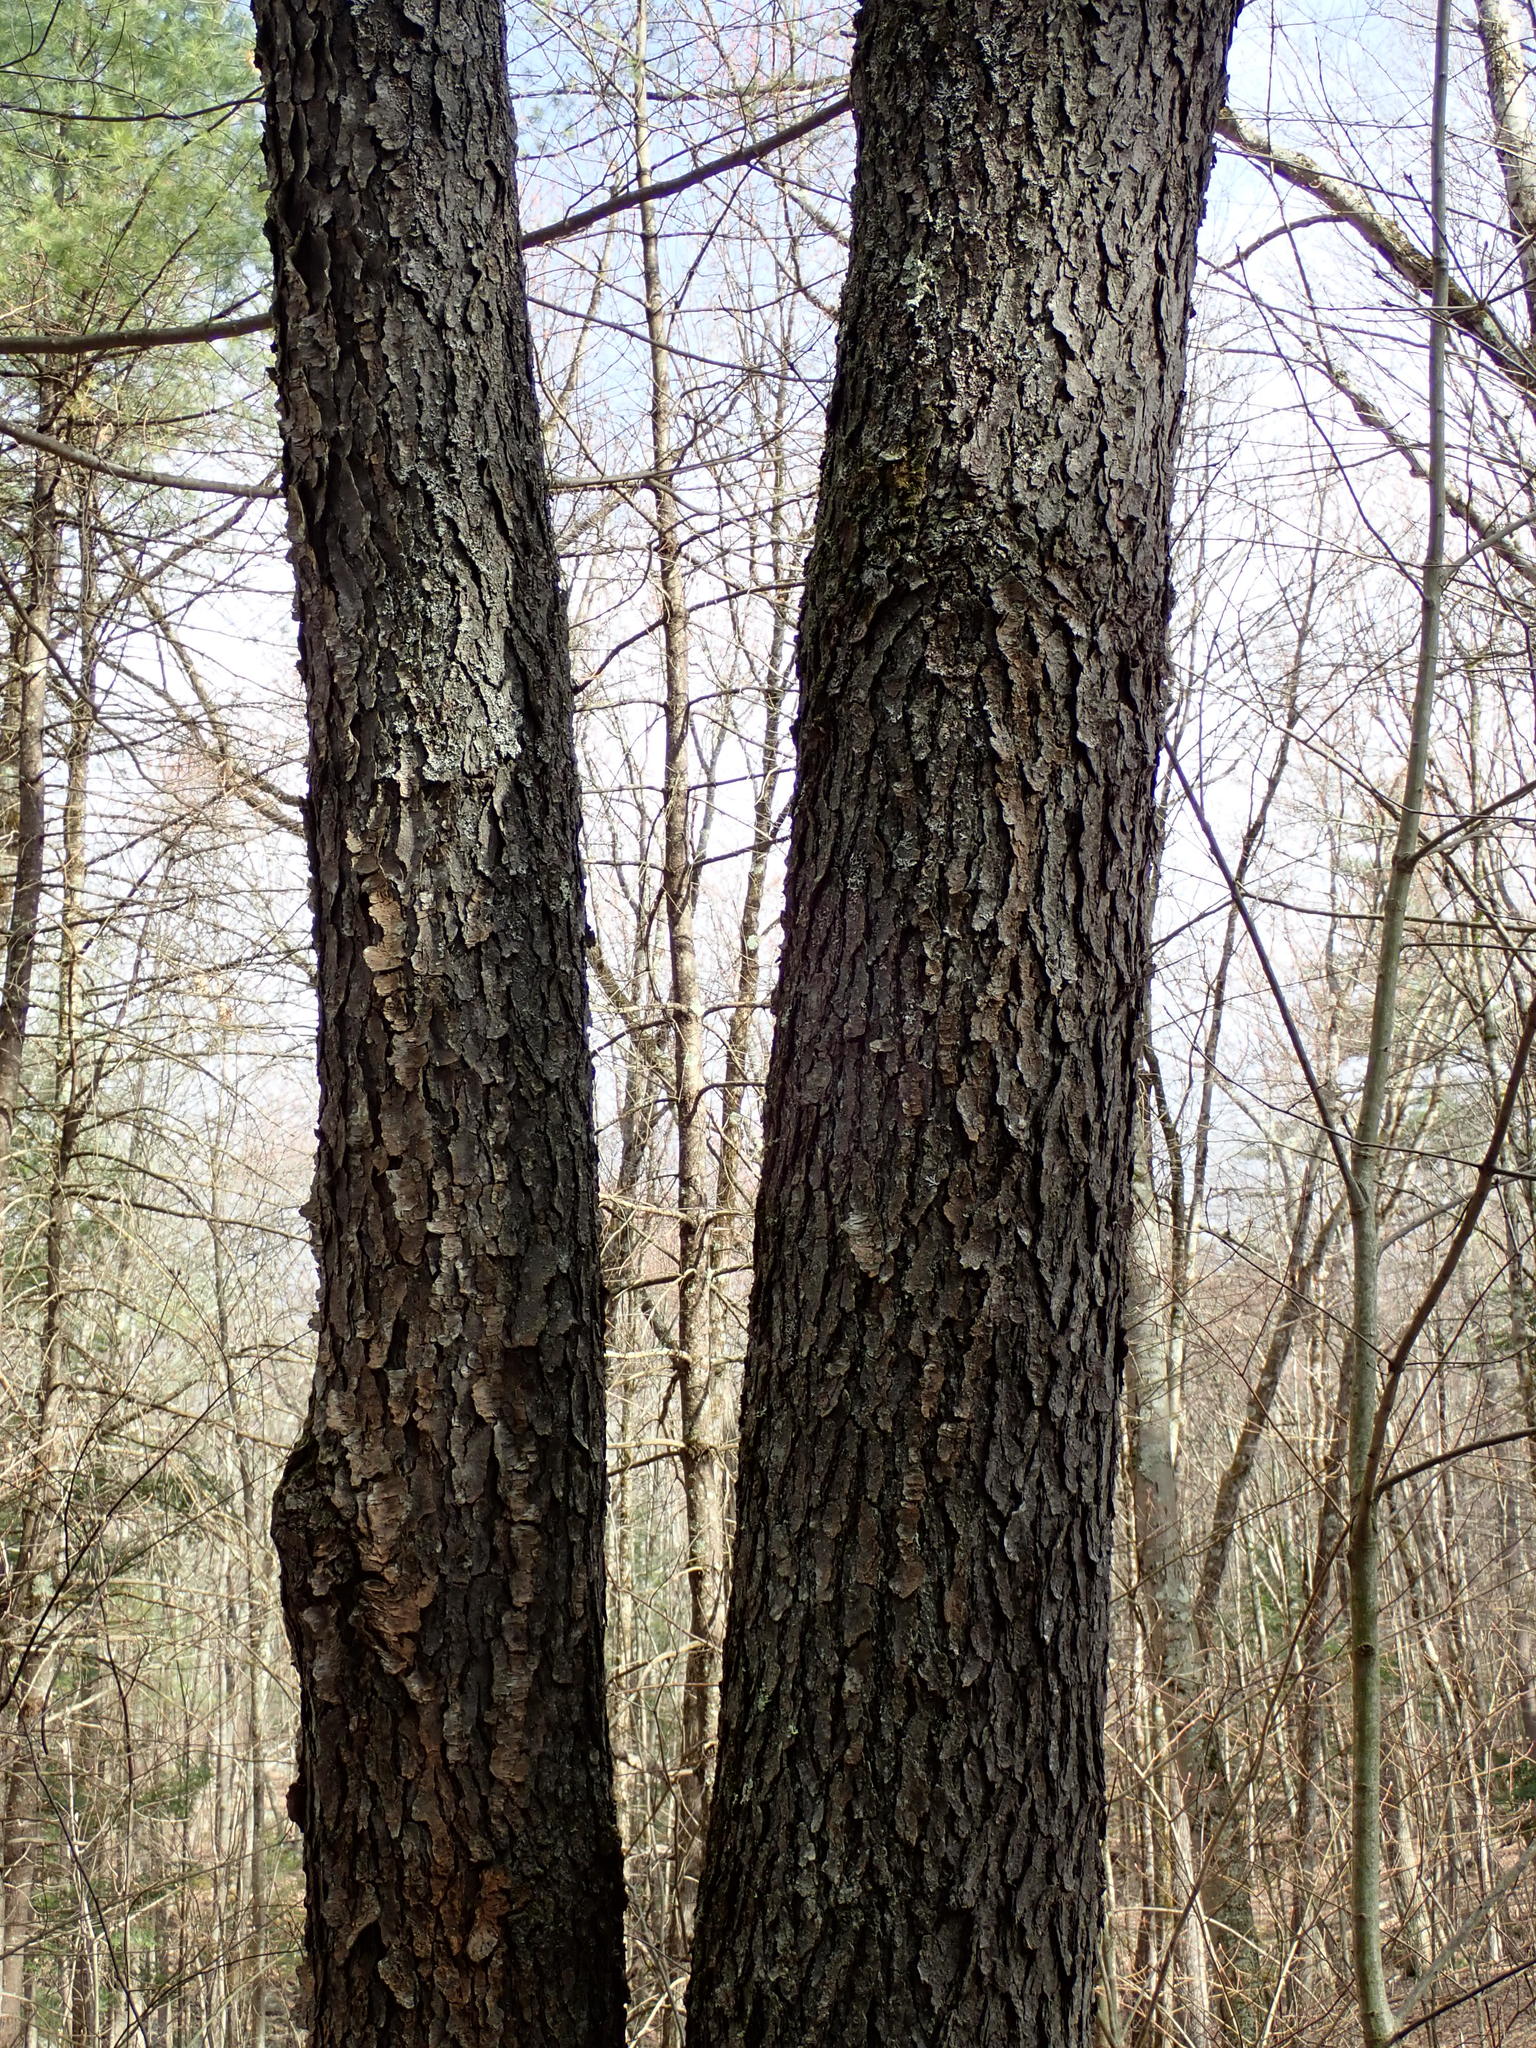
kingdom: Plantae
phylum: Tracheophyta
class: Magnoliopsida
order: Rosales
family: Rosaceae
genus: Prunus
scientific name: Prunus serotina
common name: Black cherry
